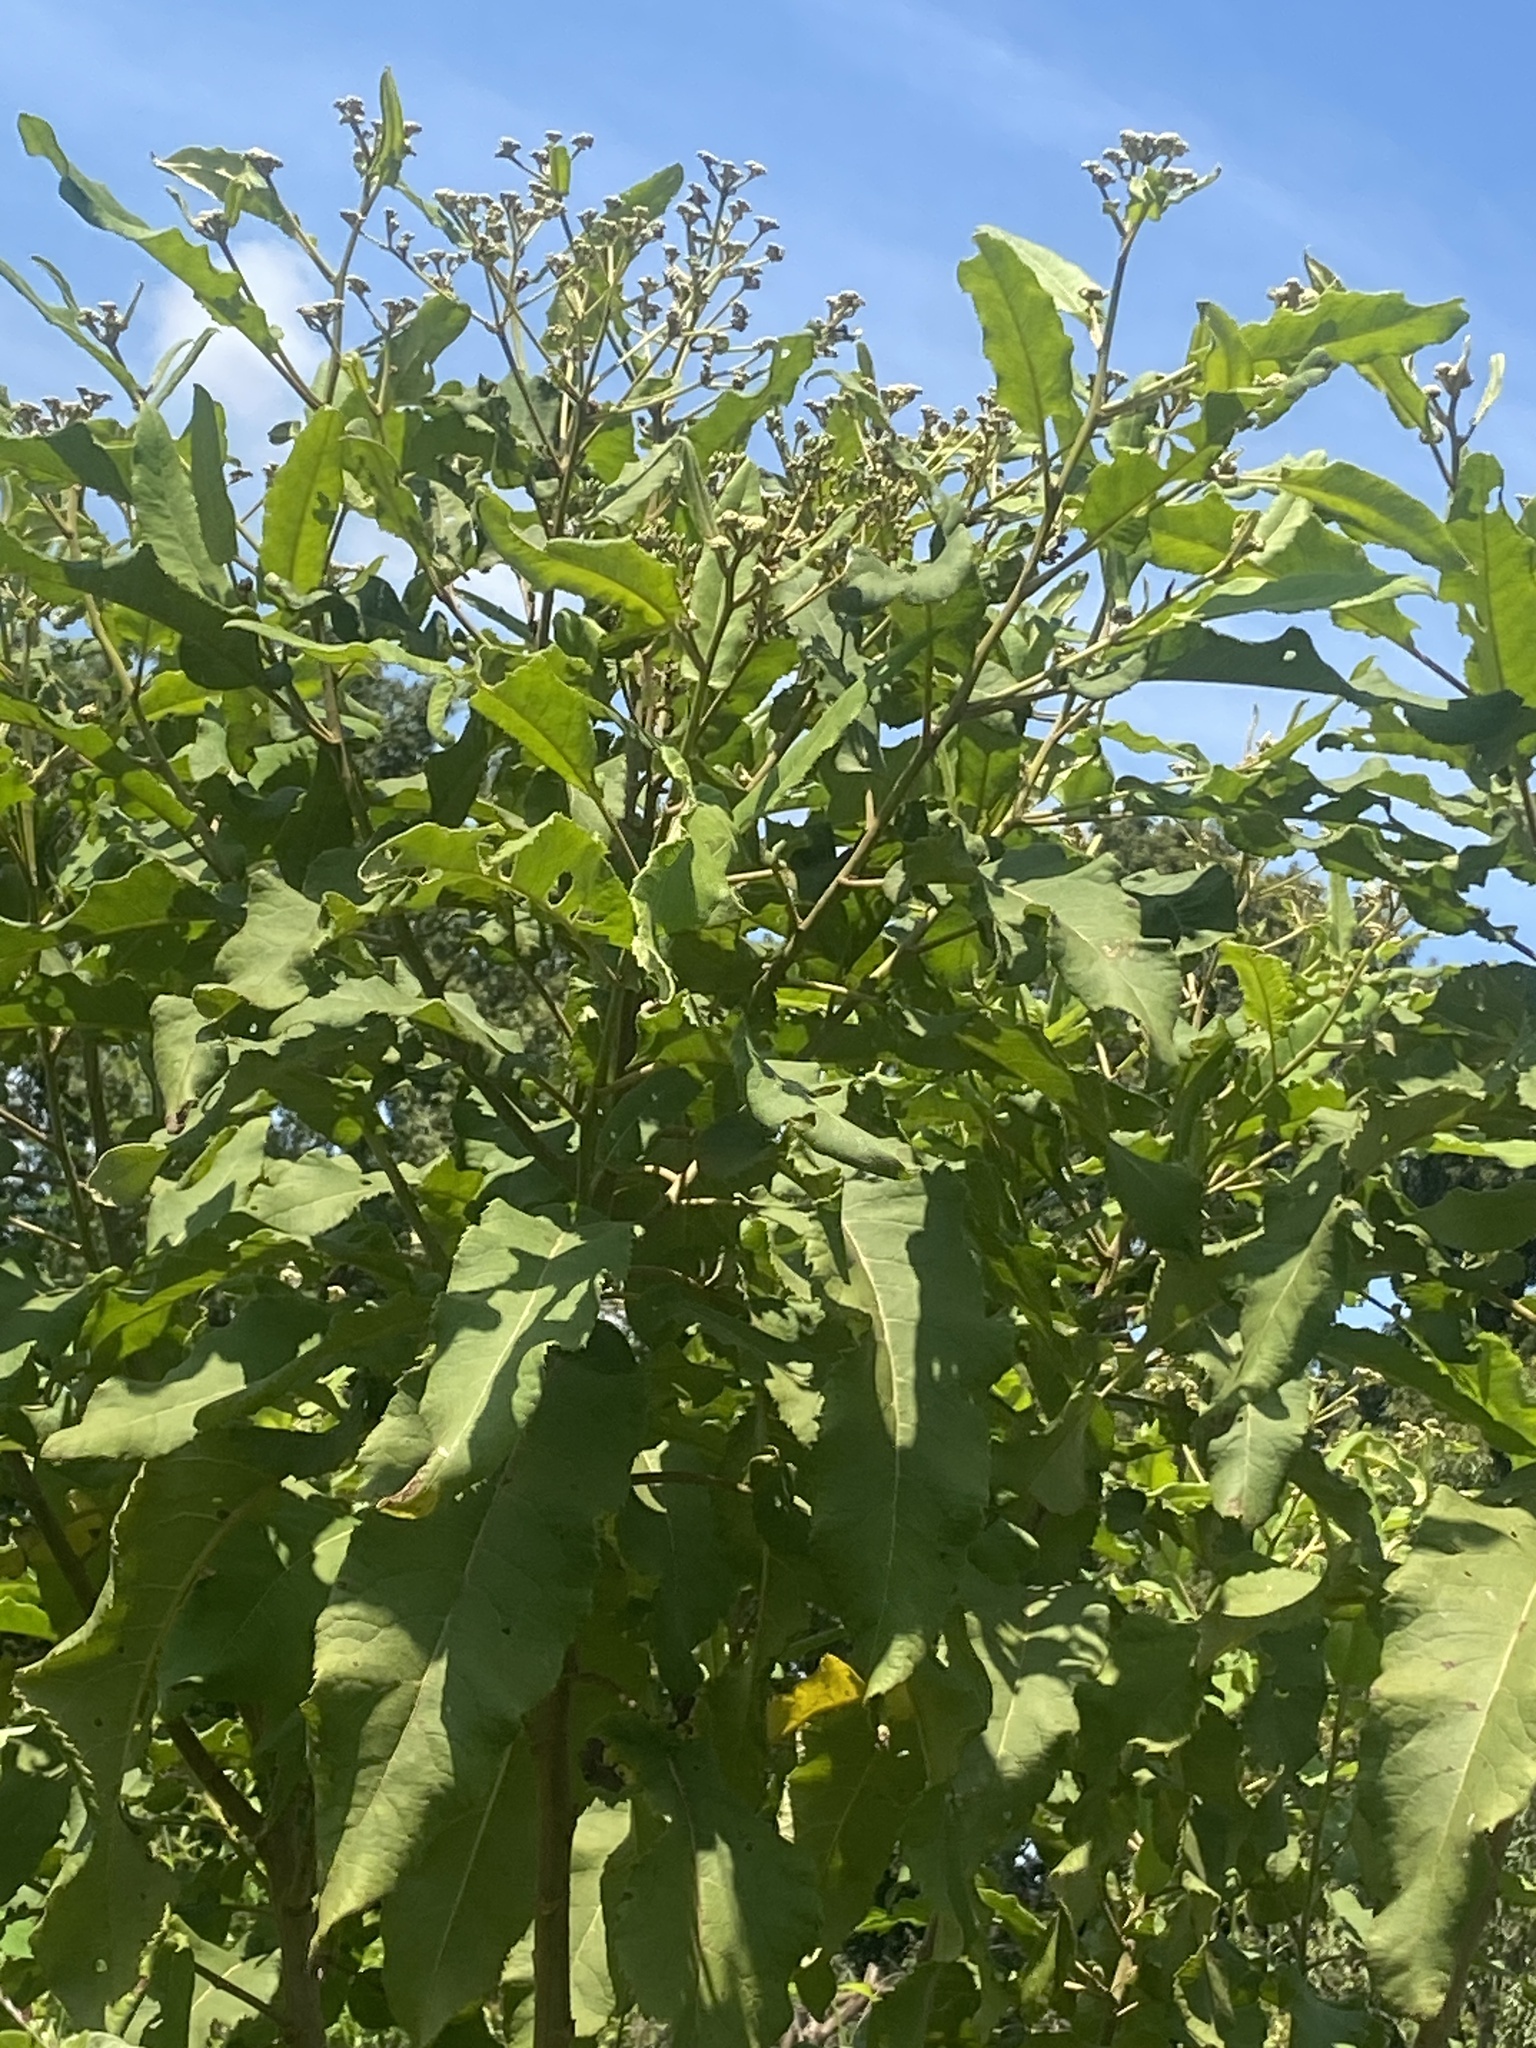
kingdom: Plantae
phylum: Tracheophyta
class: Magnoliopsida
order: Asterales
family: Asteraceae
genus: Gymnanthemum
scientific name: Gymnanthemum myrianthum
